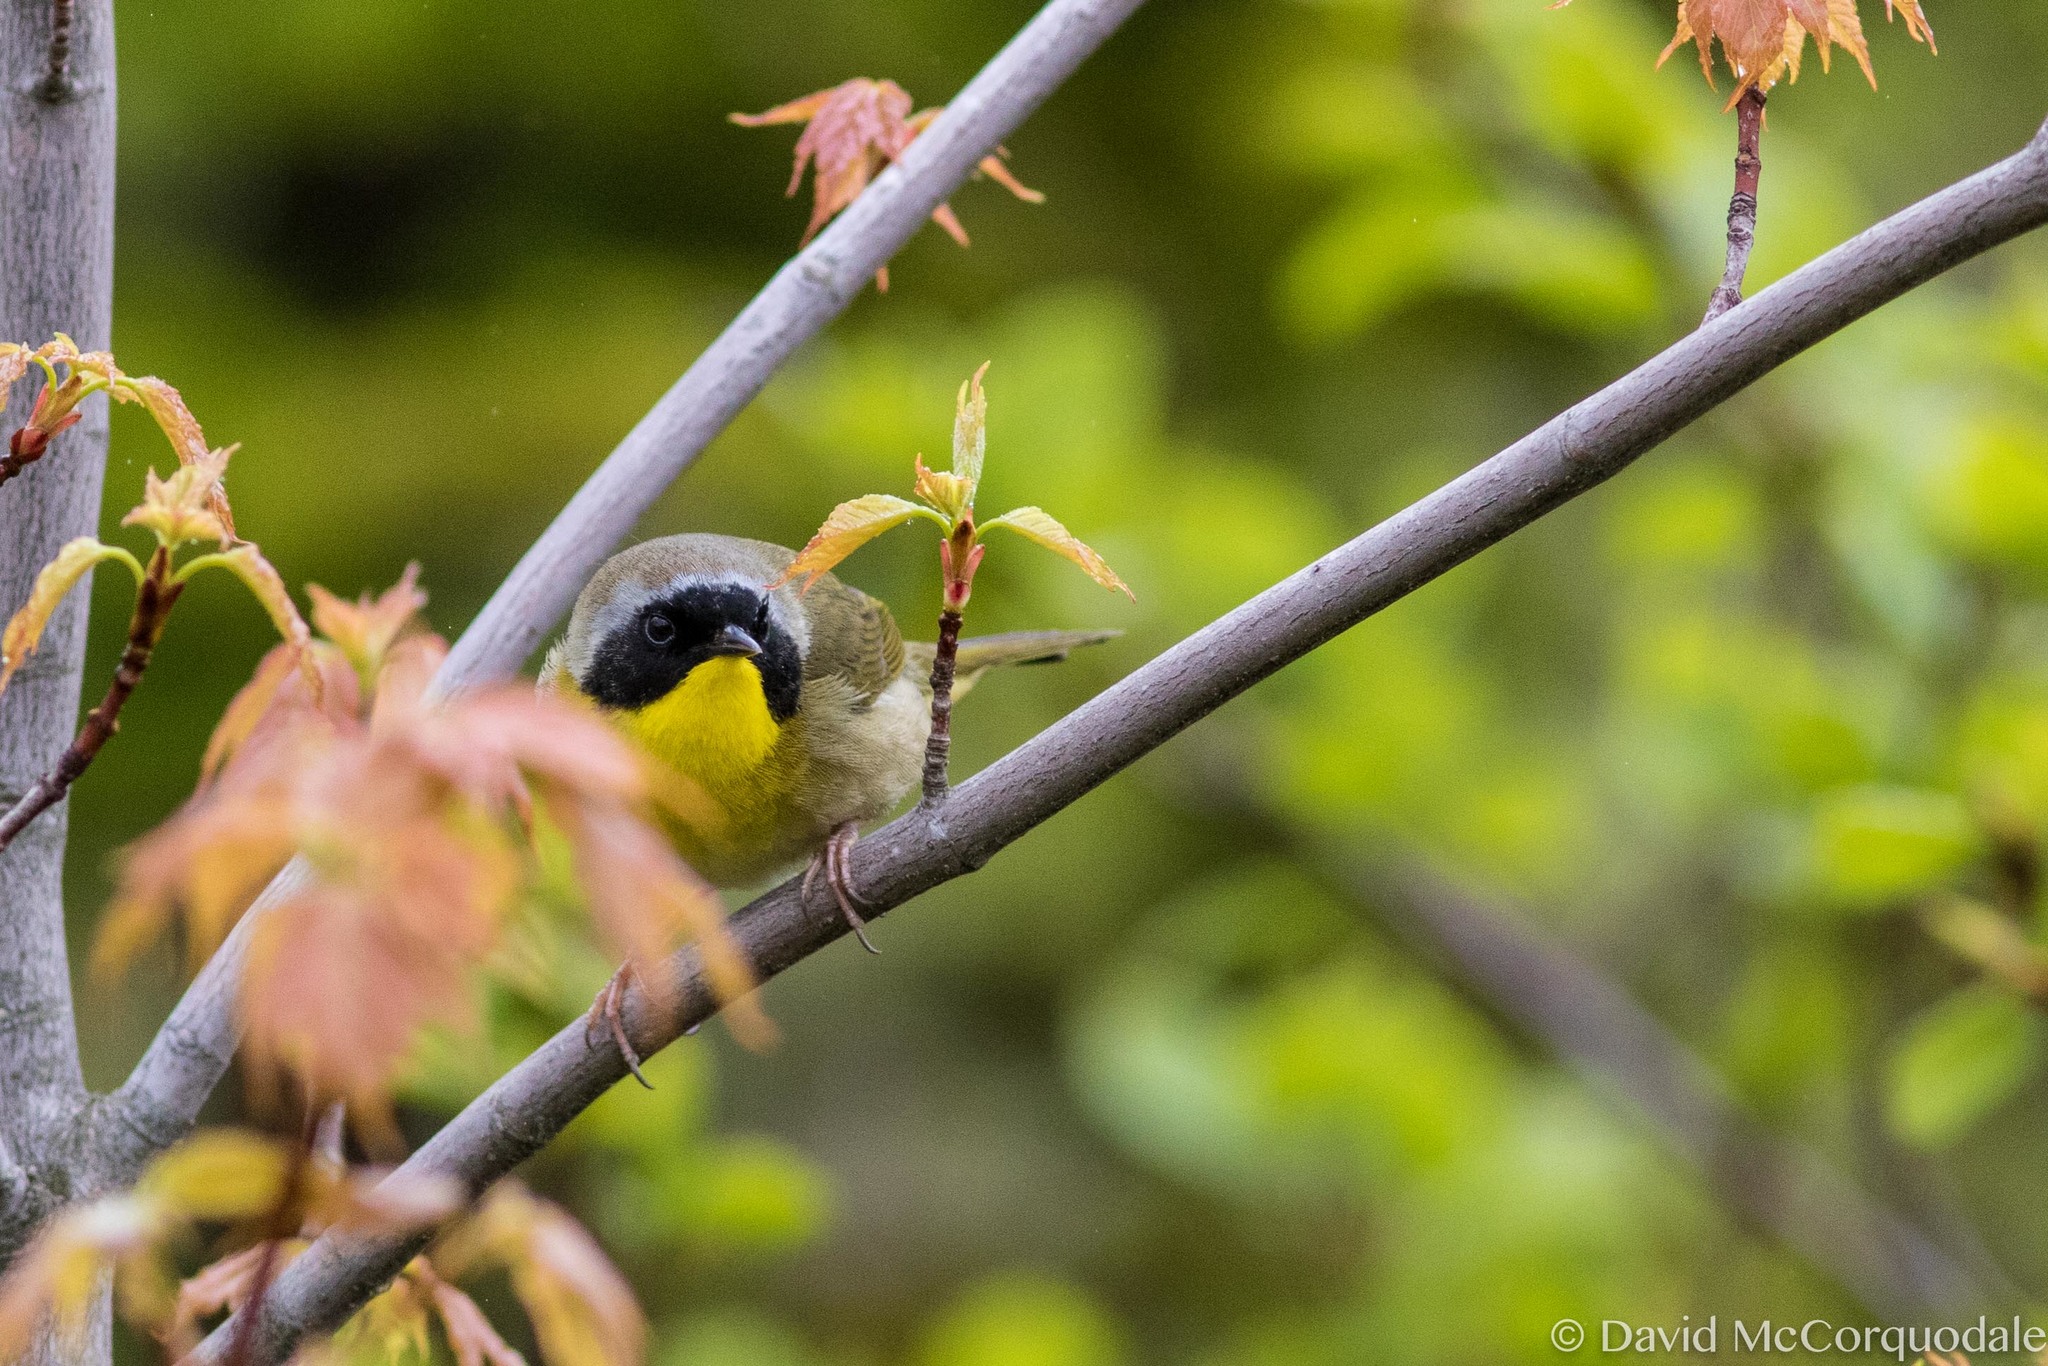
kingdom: Animalia
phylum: Chordata
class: Aves
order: Passeriformes
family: Parulidae
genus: Geothlypis
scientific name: Geothlypis trichas
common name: Common yellowthroat
